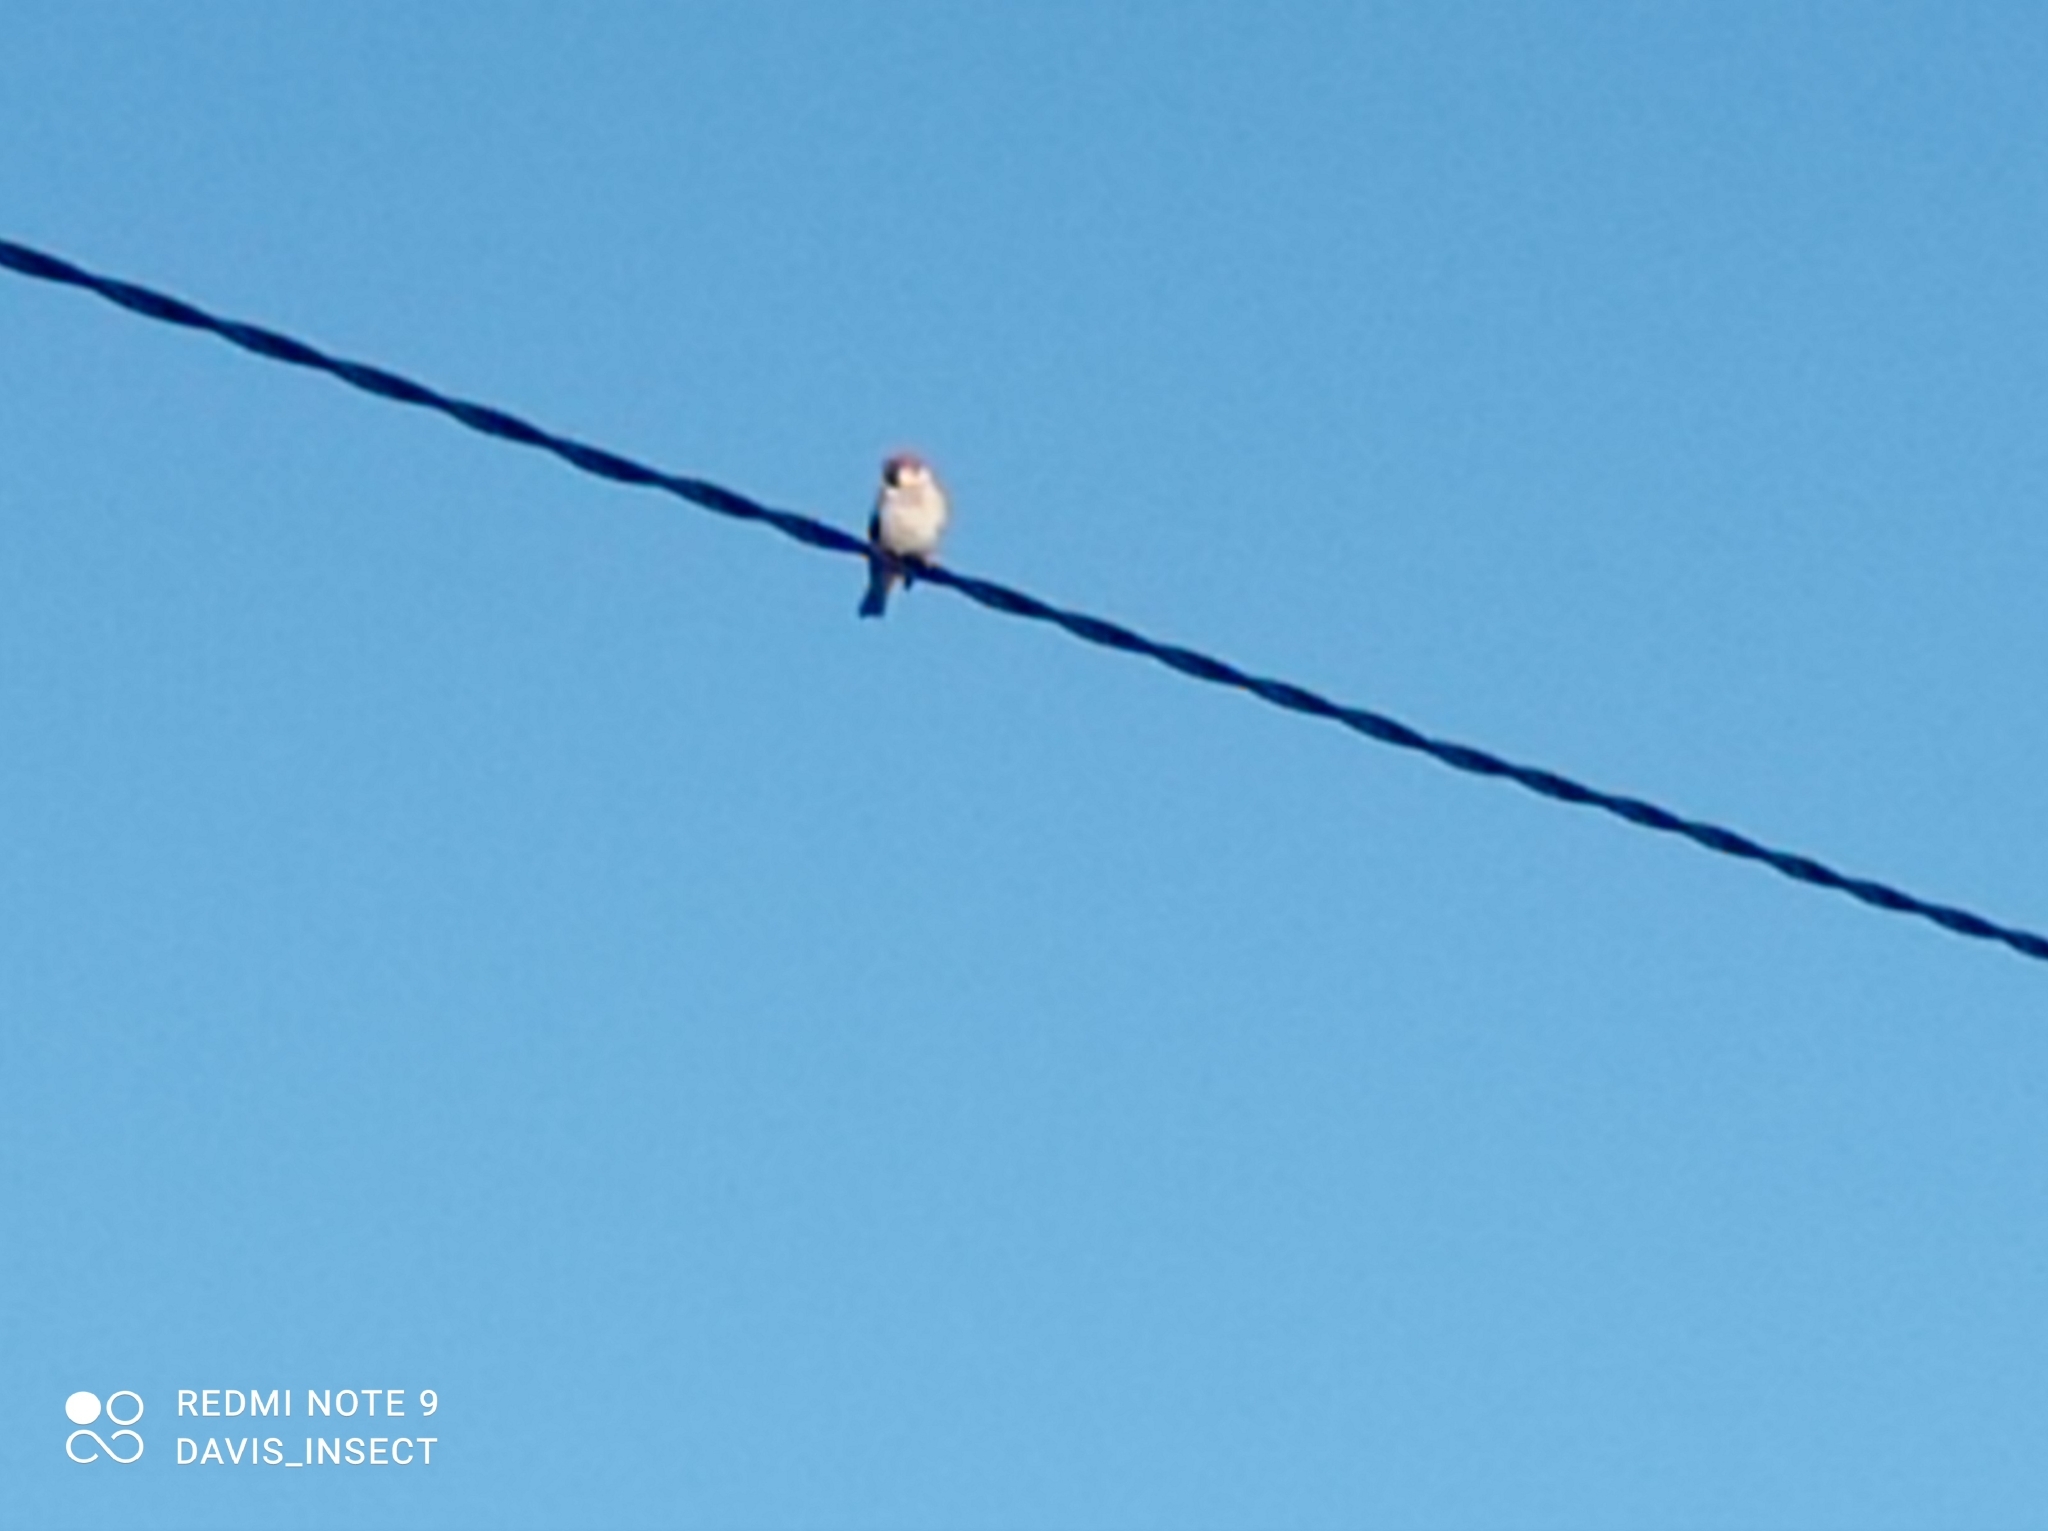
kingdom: Animalia
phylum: Chordata
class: Aves
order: Passeriformes
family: Passeridae
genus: Passer
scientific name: Passer montanus
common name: Eurasian tree sparrow
